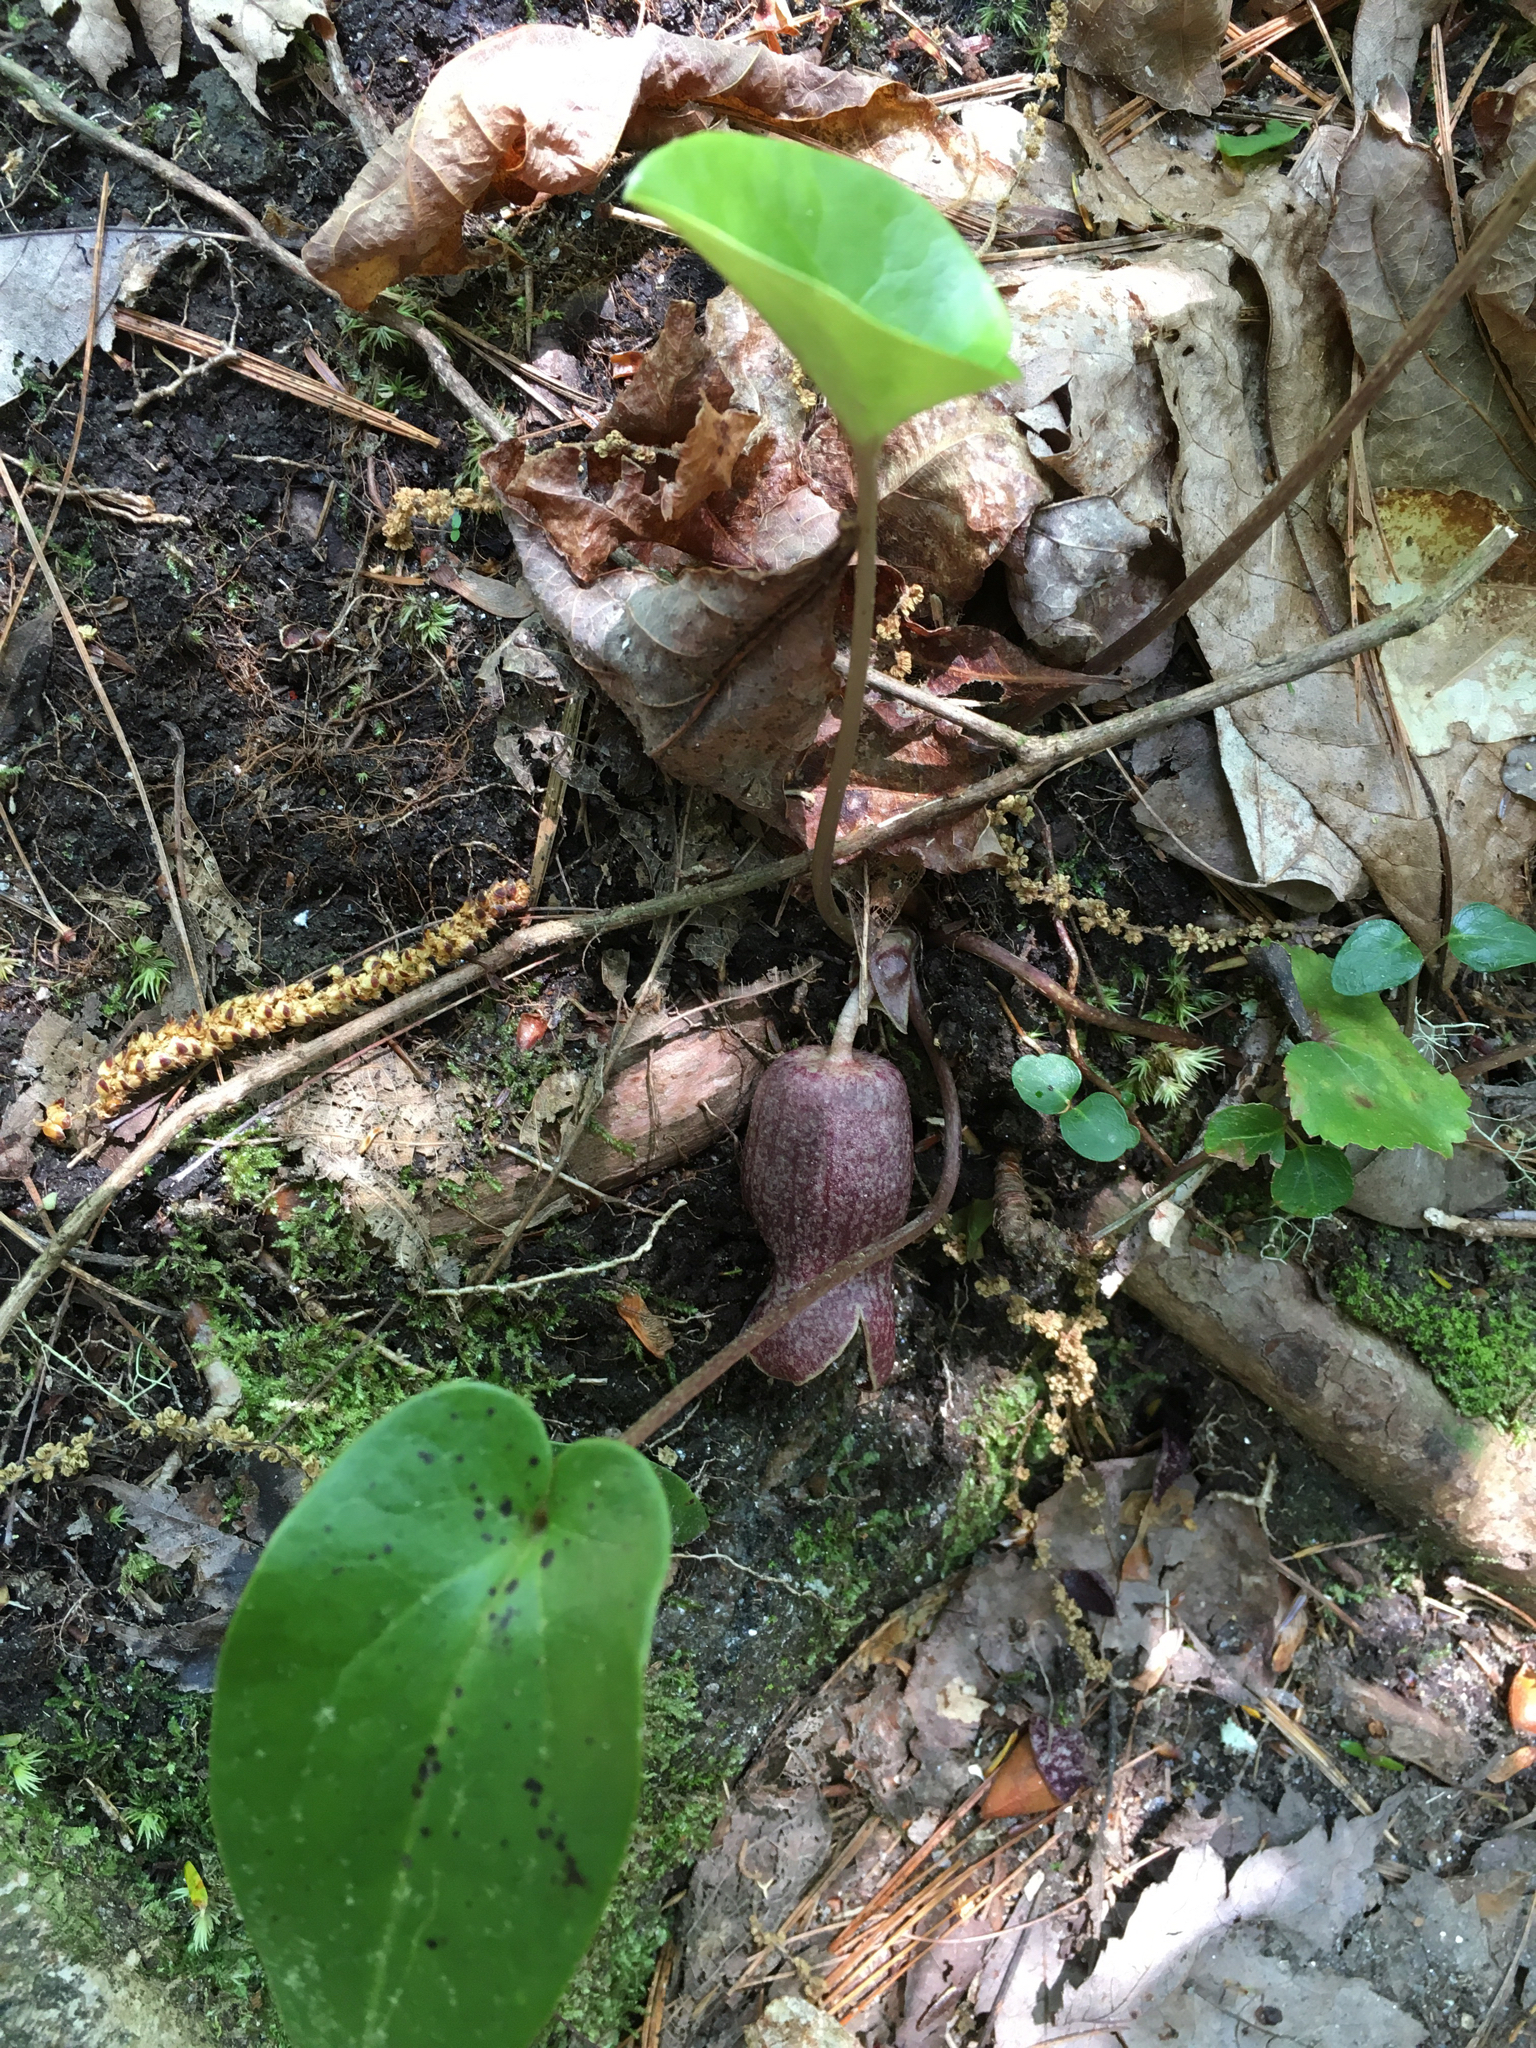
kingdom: Plantae
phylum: Tracheophyta
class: Magnoliopsida
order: Piperales
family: Aristolochiaceae
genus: Hexastylis
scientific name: Hexastylis shuttleworthii
